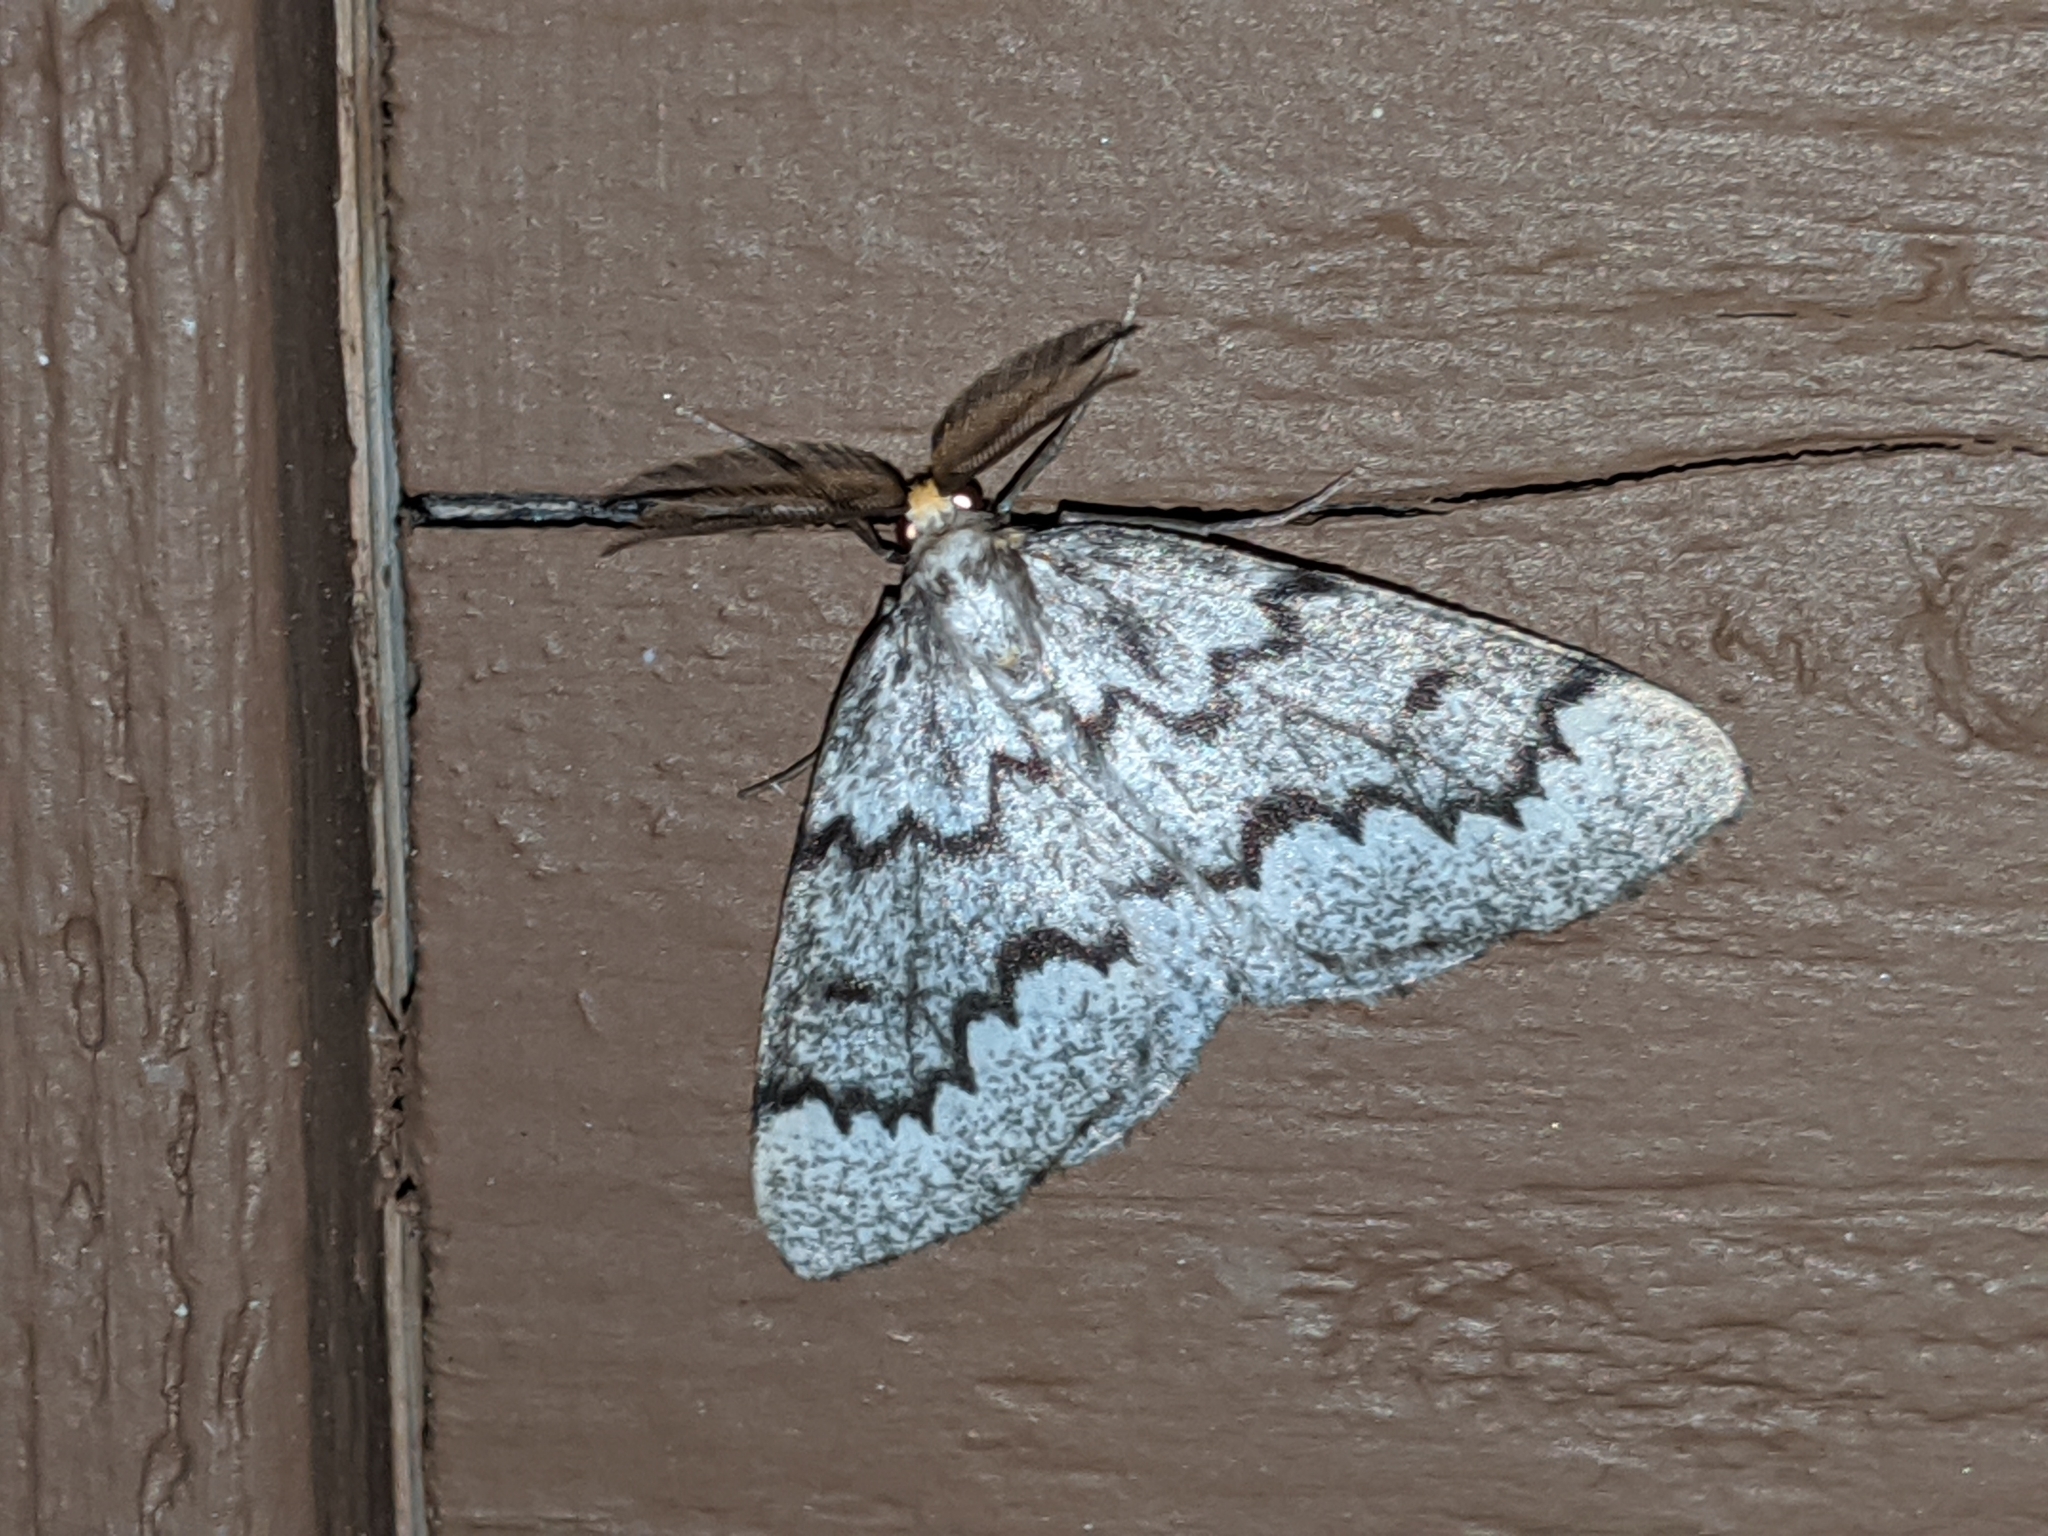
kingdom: Animalia
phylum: Arthropoda
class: Insecta
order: Lepidoptera
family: Geometridae
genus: Nepytia
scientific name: Nepytia canosaria
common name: False hemlock looper
